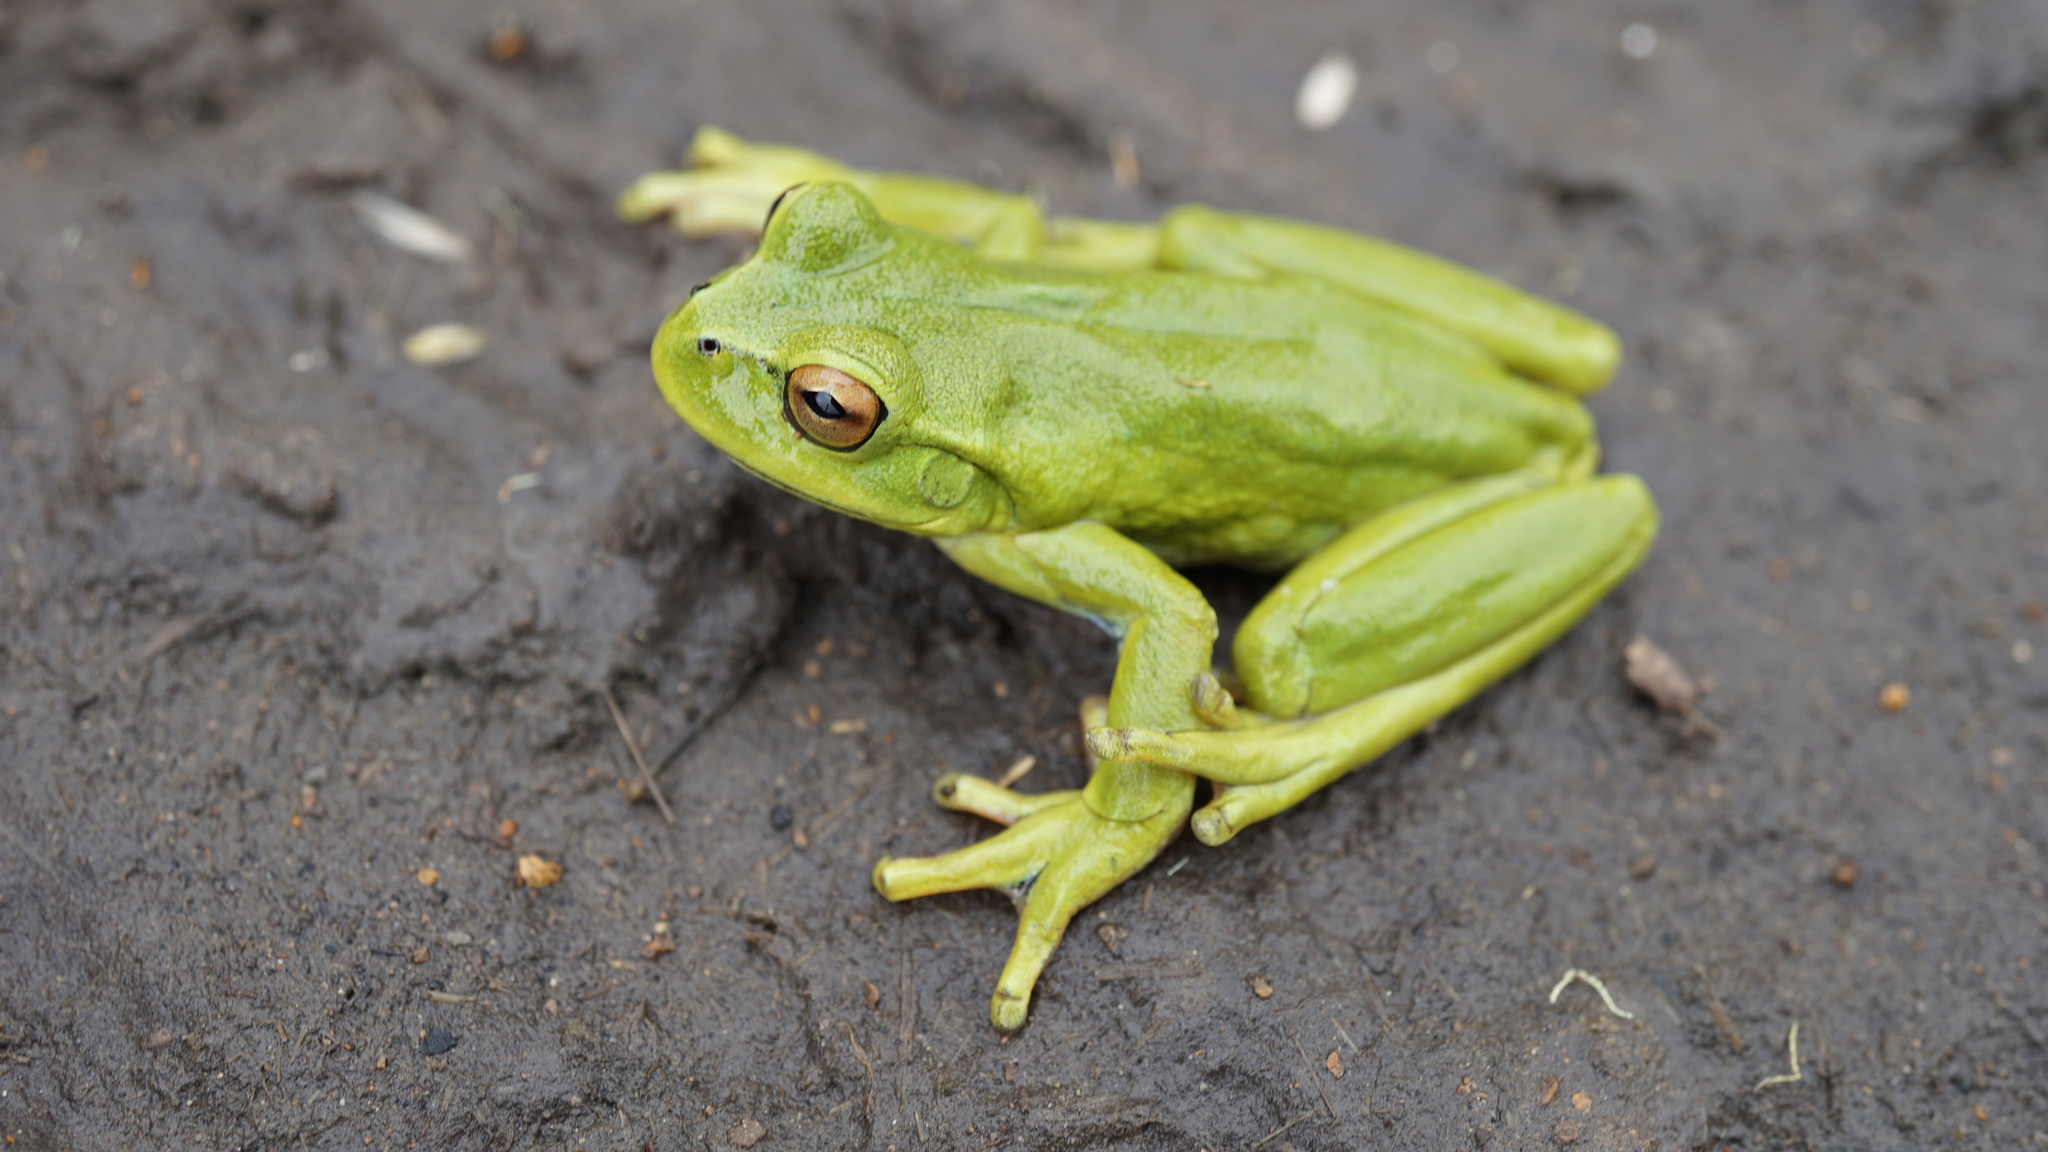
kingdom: Animalia
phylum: Chordata
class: Amphibia
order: Anura
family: Hylidae
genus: Dendropsophus
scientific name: Dendropsophus molitor
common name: Green dotted treefrog
